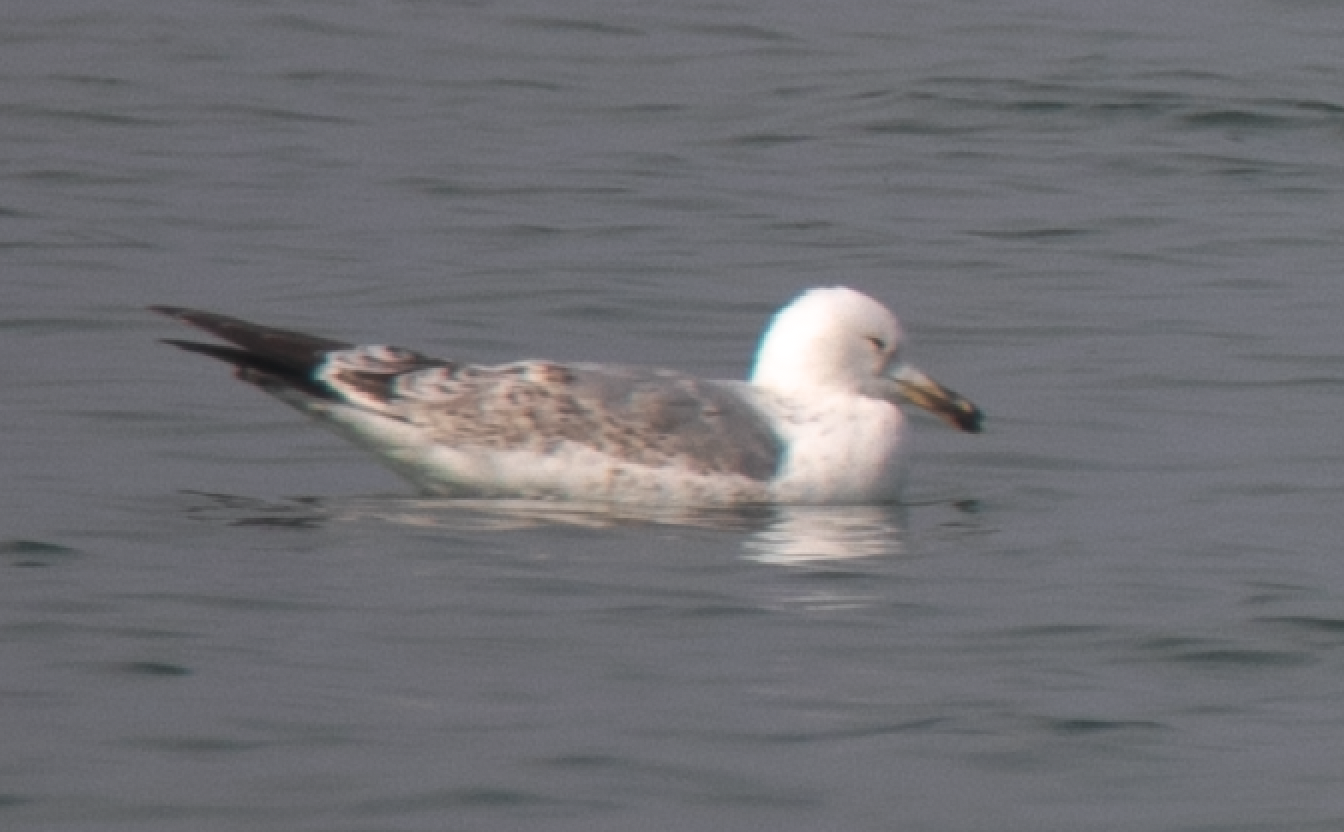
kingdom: Animalia
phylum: Chordata
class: Aves
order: Charadriiformes
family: Laridae
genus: Larus
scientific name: Larus cachinnans
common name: Caspian gull
